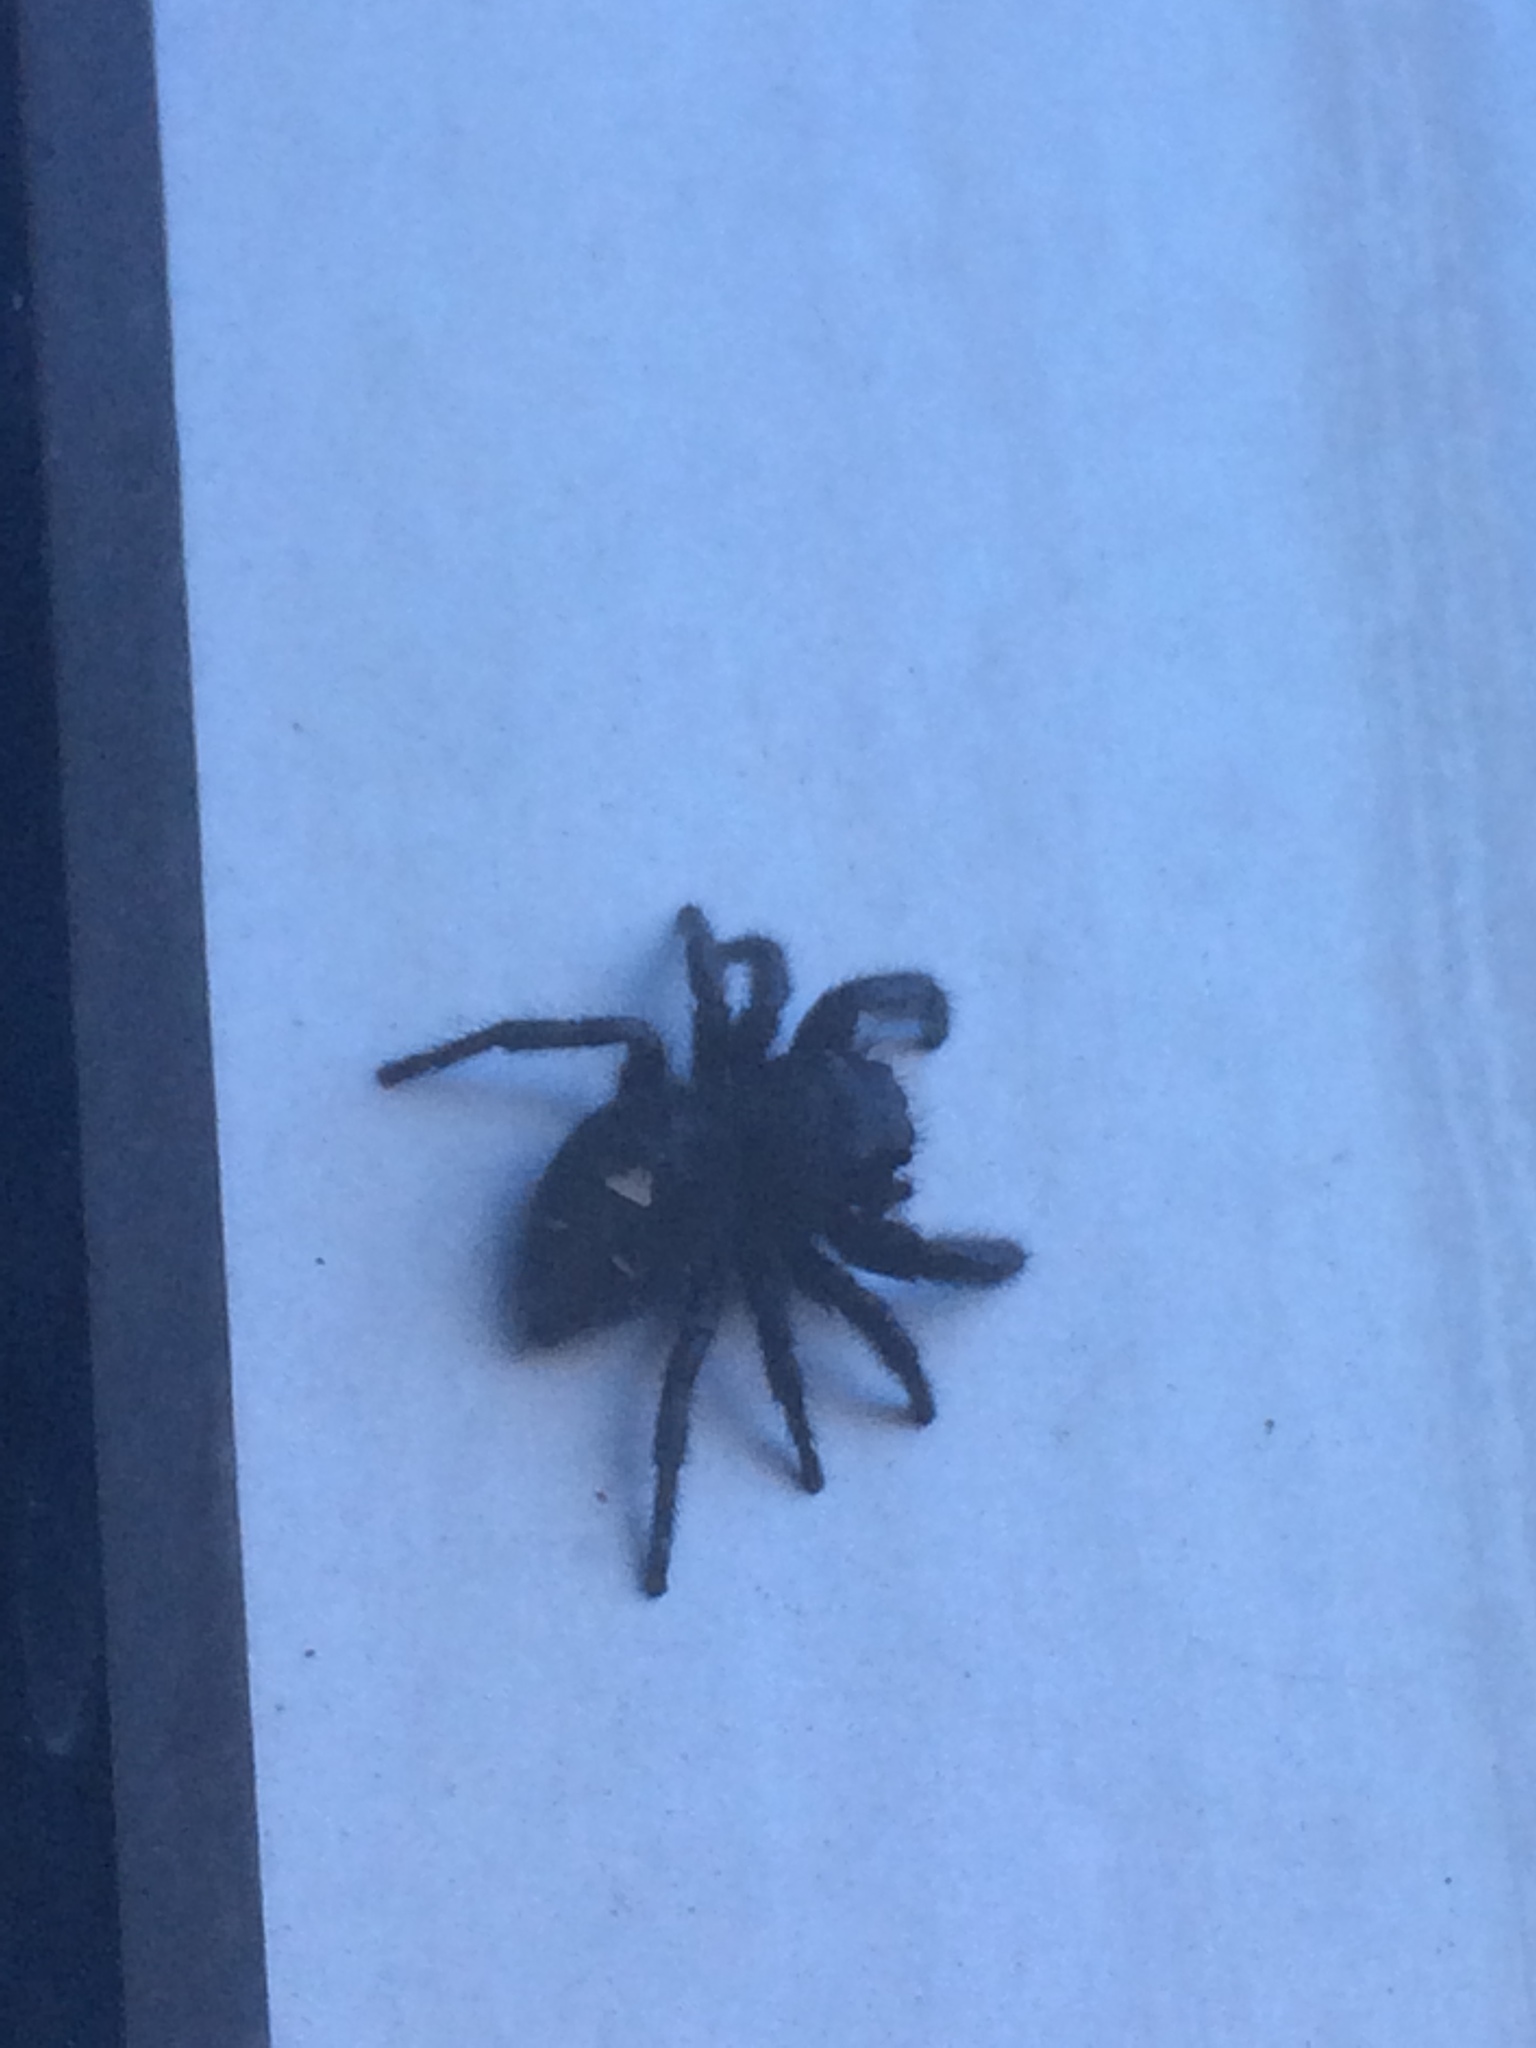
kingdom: Animalia
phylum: Arthropoda
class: Arachnida
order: Araneae
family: Salticidae
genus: Phidippus
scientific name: Phidippus audax
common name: Bold jumper
